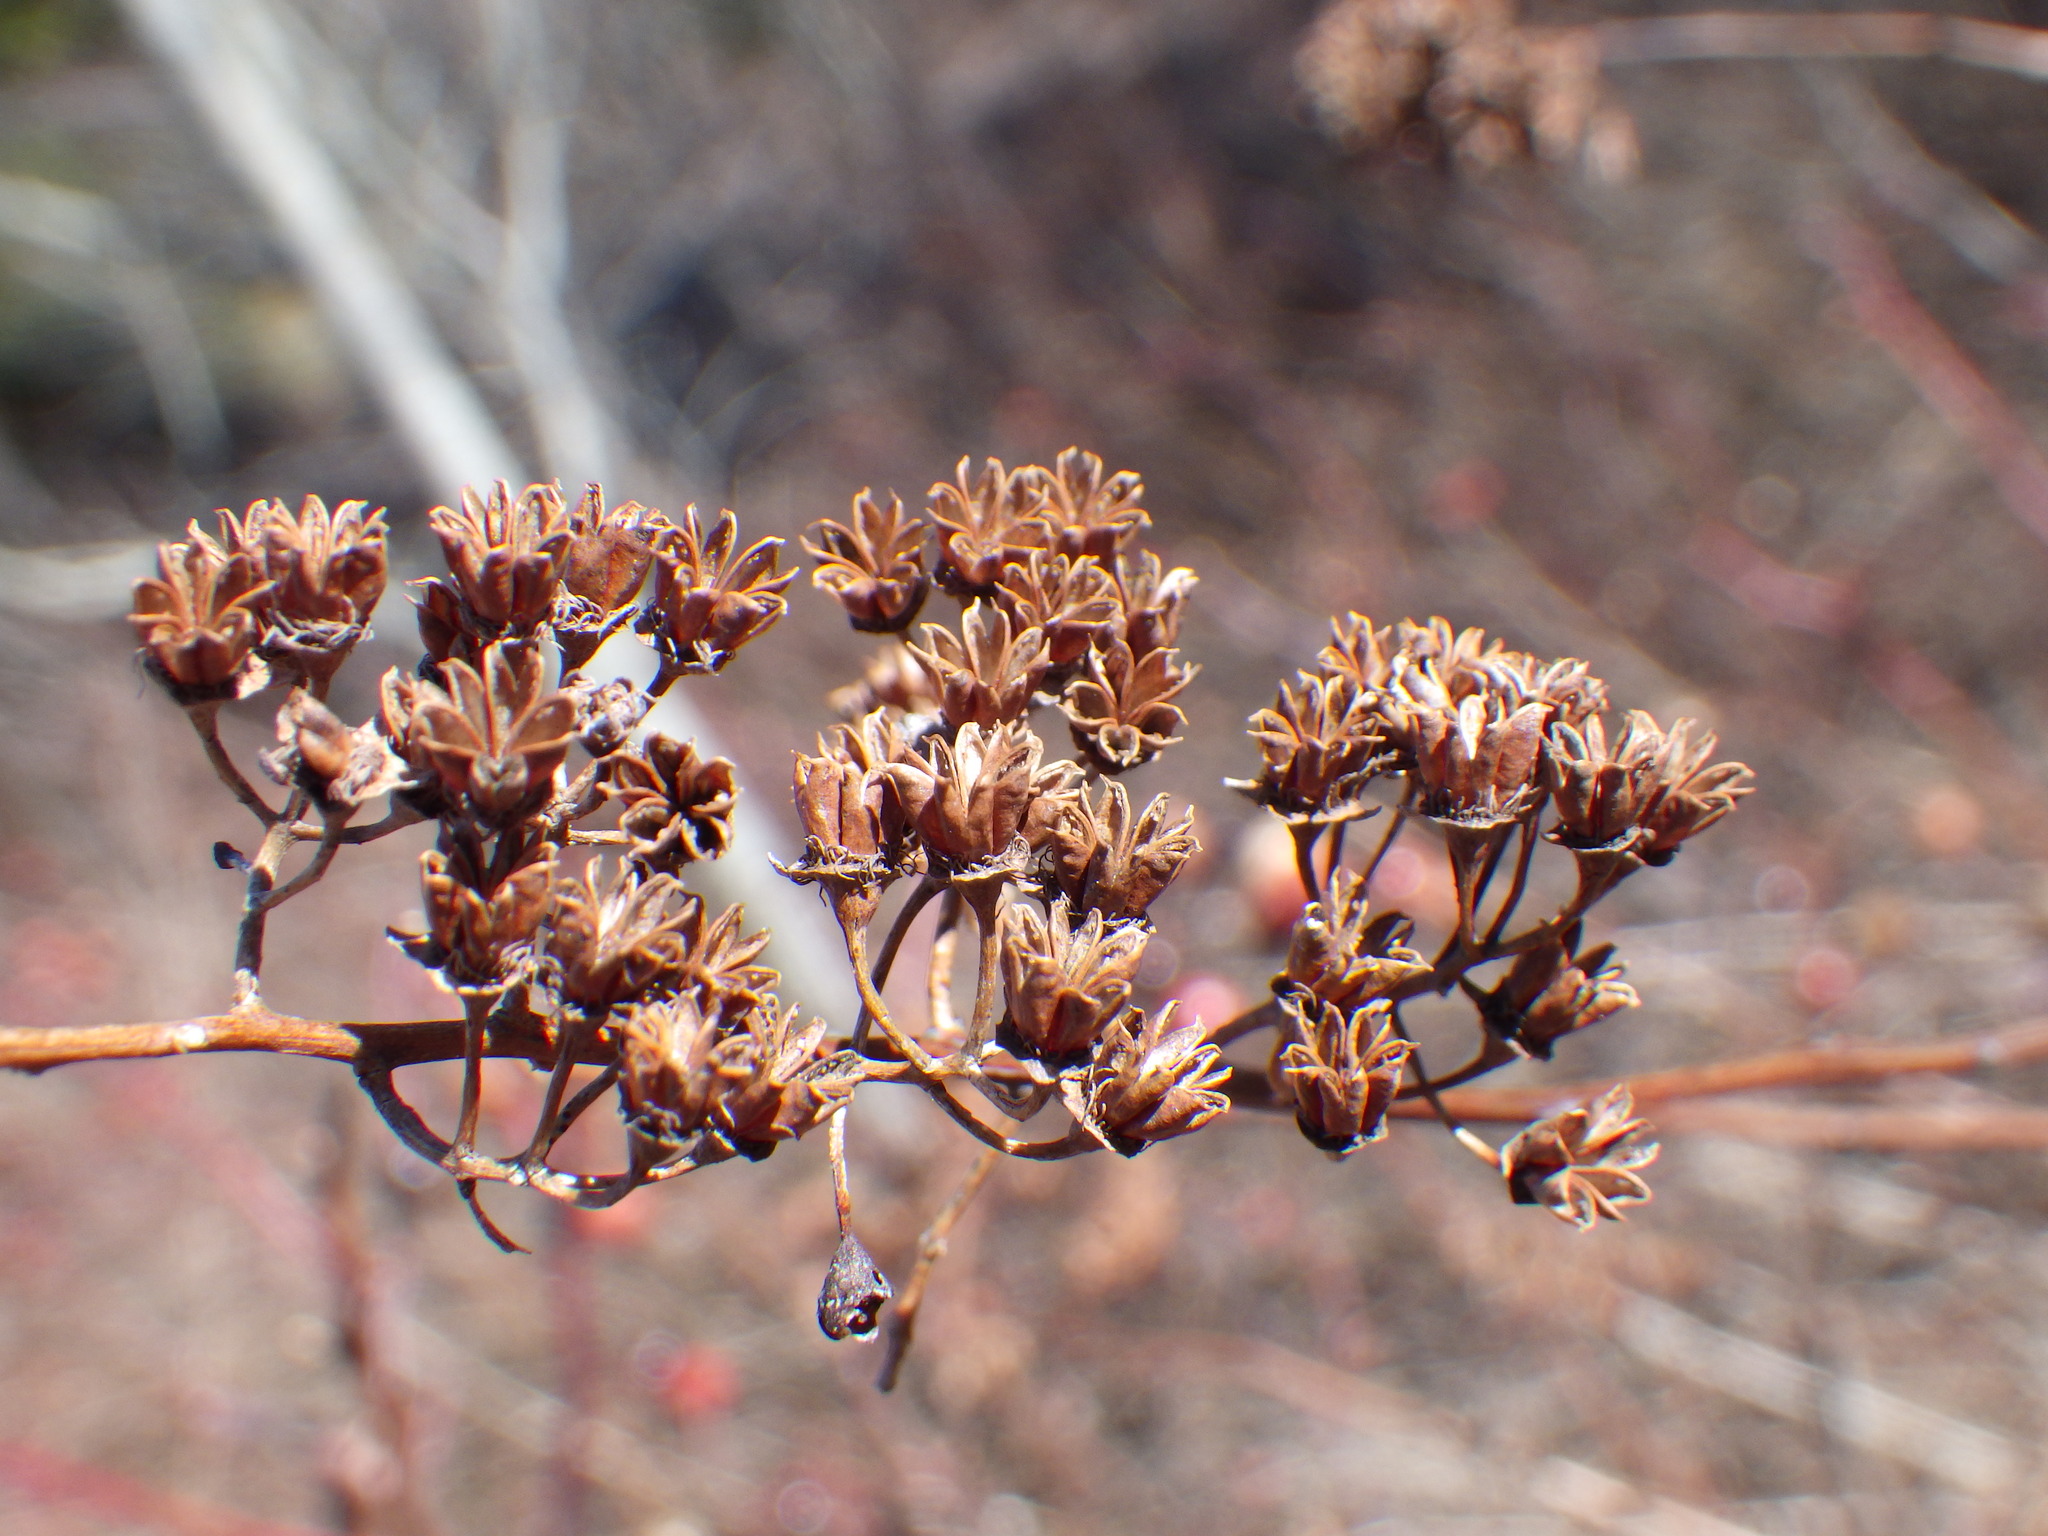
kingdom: Plantae
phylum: Tracheophyta
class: Magnoliopsida
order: Rosales
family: Rosaceae
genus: Spiraea
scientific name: Spiraea alba
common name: Pale bridewort
